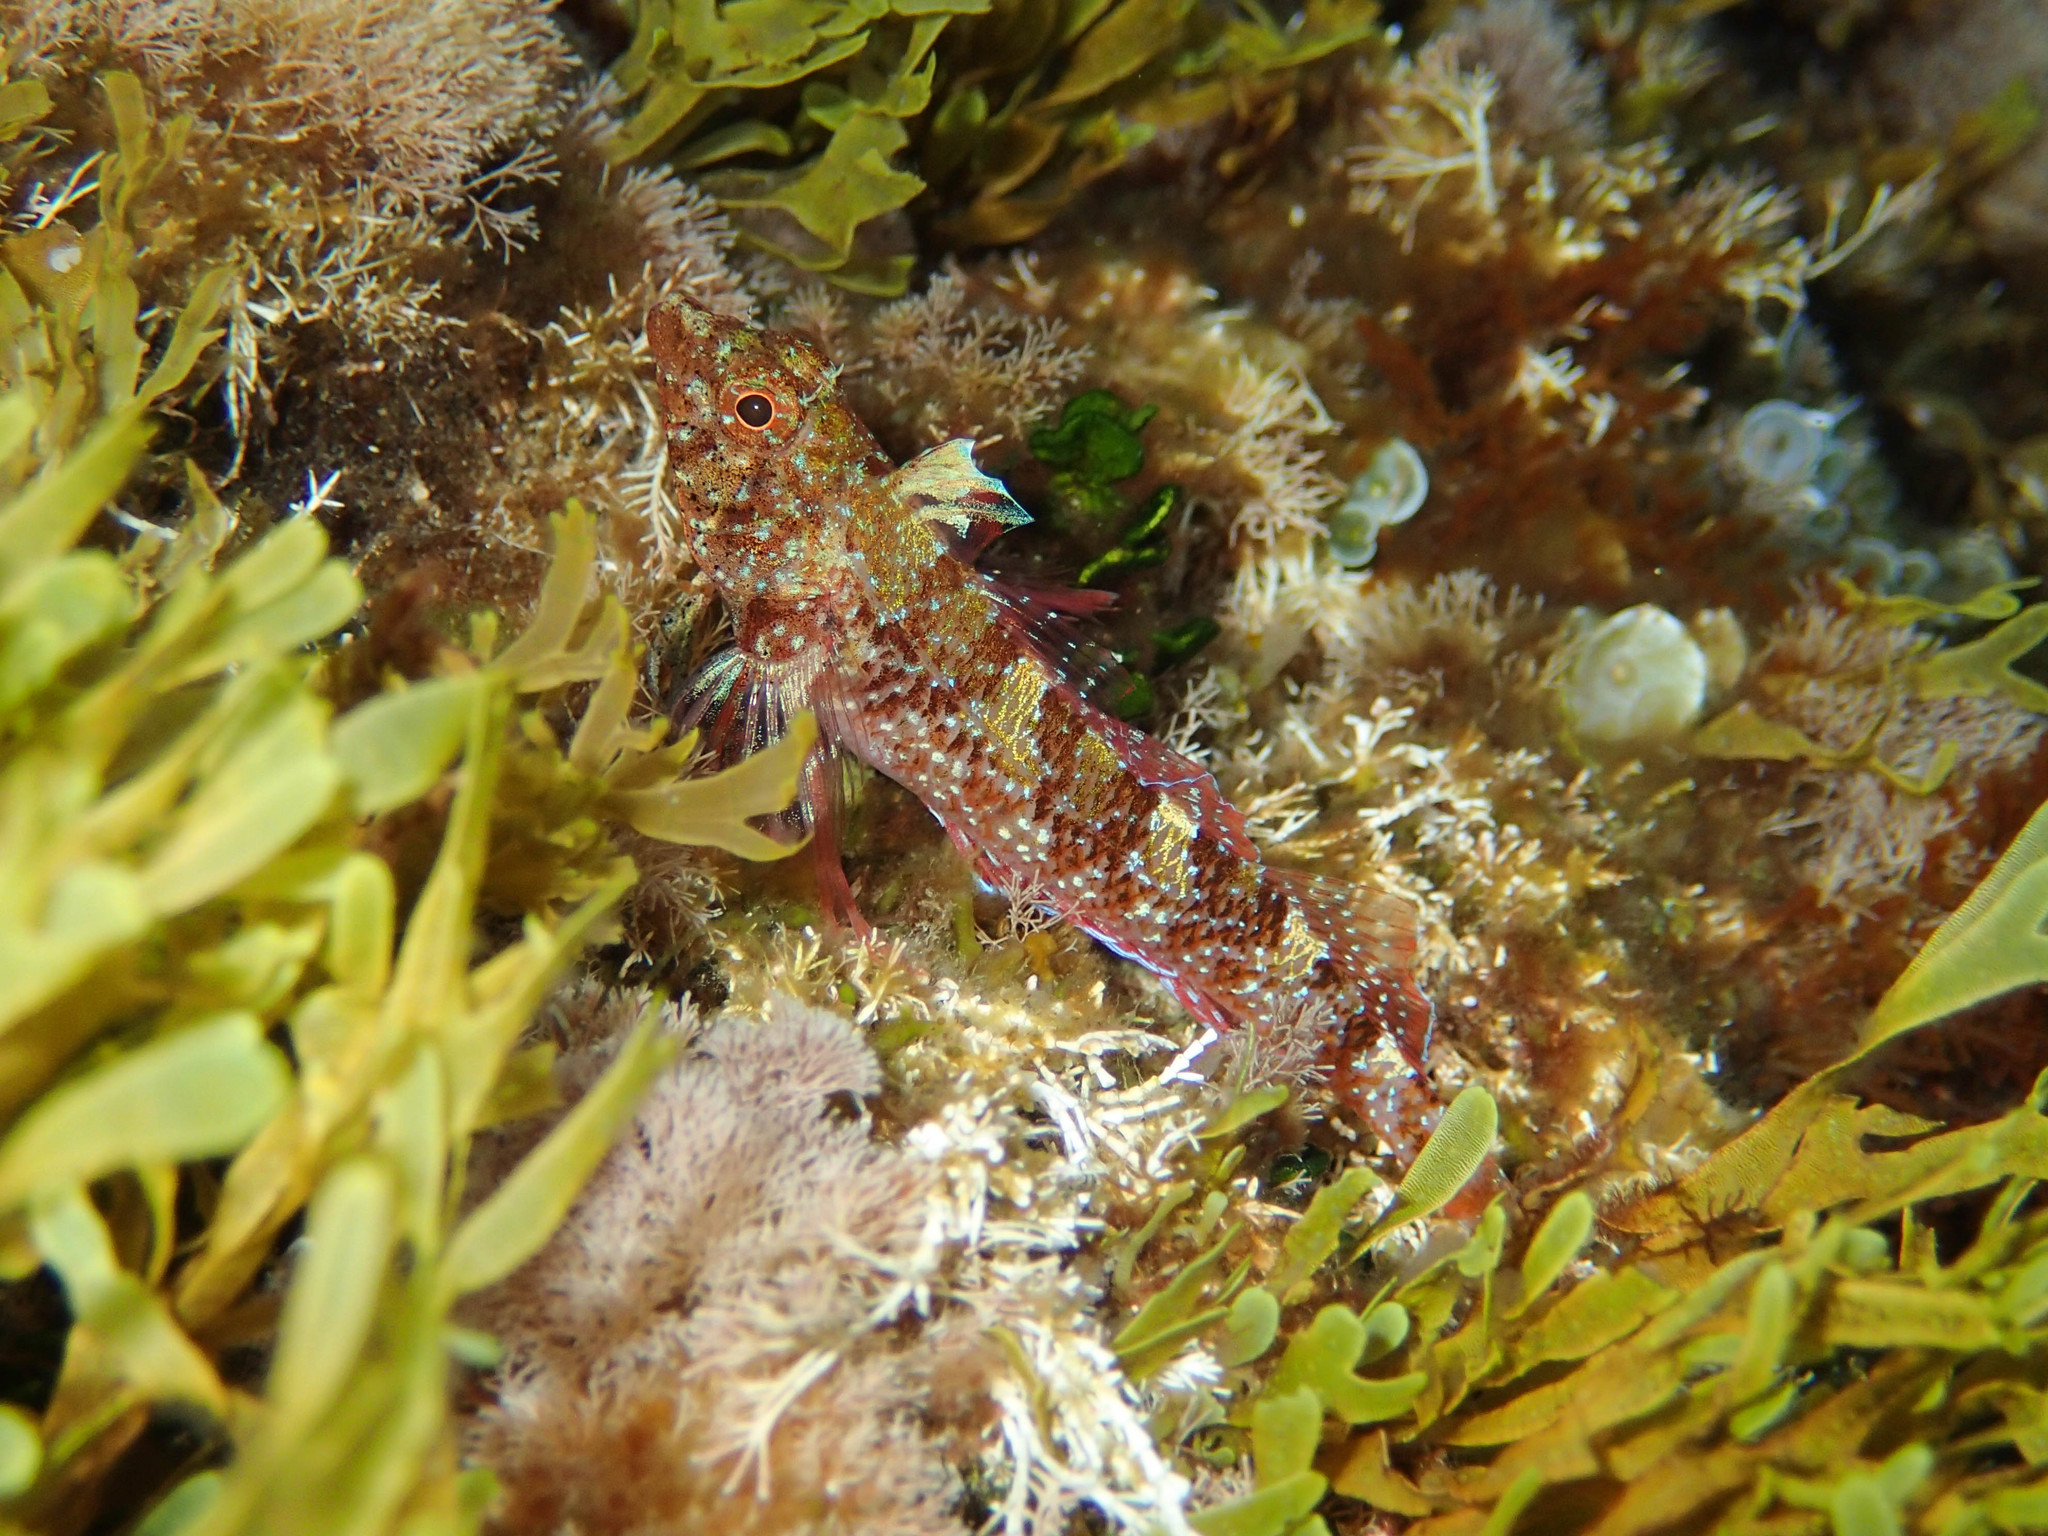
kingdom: Animalia
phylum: Chordata
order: Perciformes
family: Tripterygiidae
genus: Tripterygion
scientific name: Tripterygion tripteronotum
